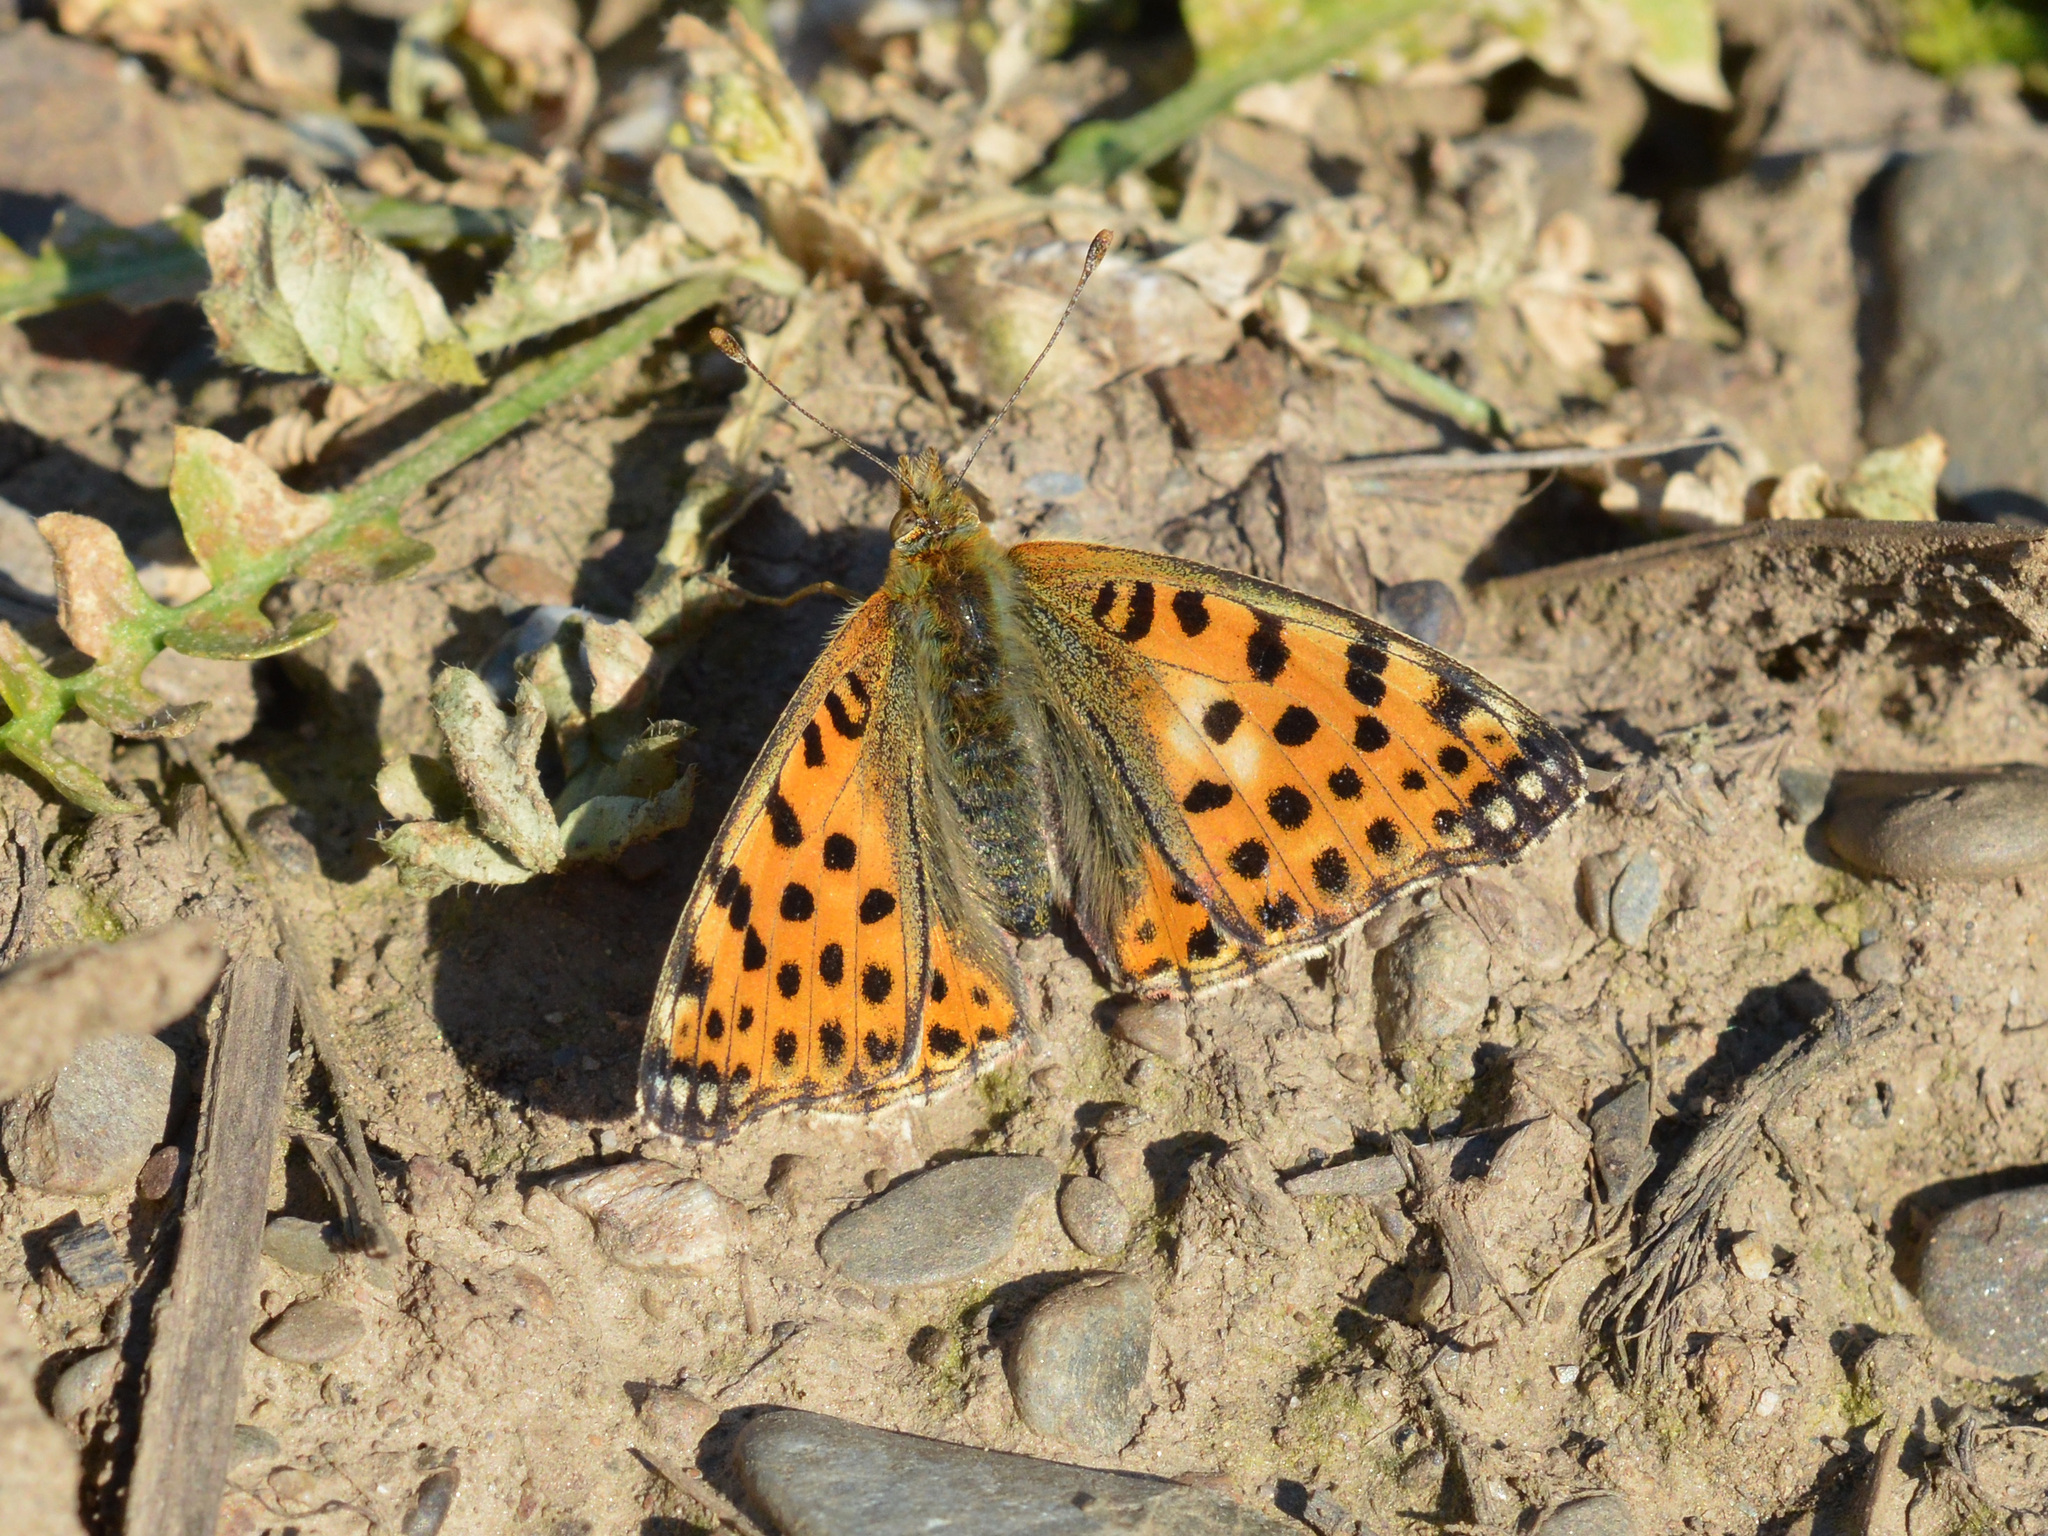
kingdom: Animalia
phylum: Arthropoda
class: Insecta
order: Lepidoptera
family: Nymphalidae
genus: Issoria
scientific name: Issoria lathonia
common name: Queen of spain fritillary
